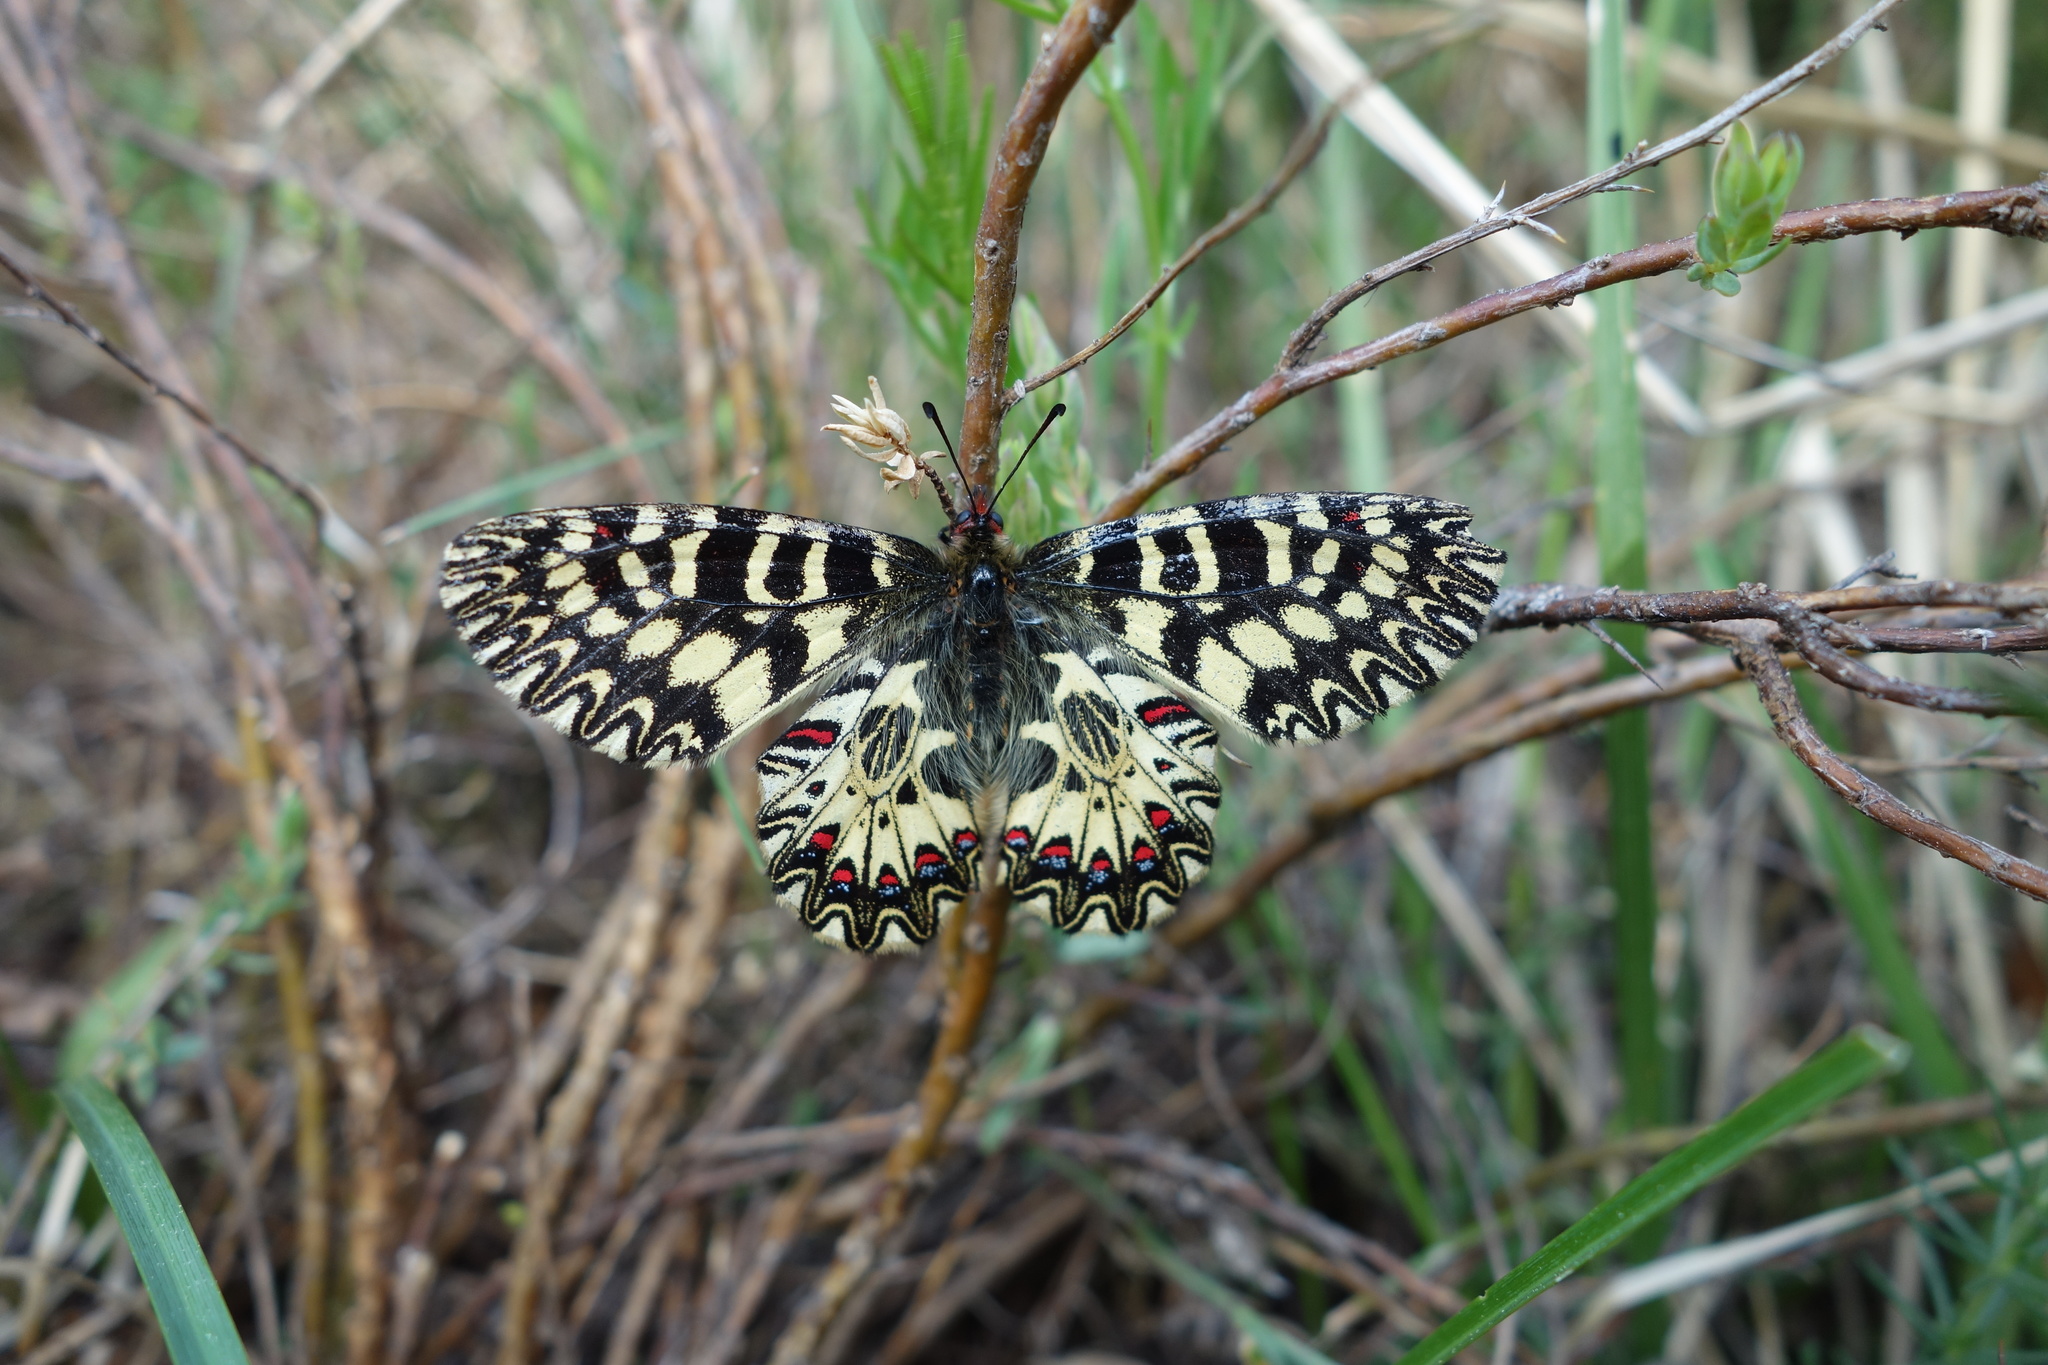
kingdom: Animalia
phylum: Arthropoda
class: Insecta
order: Lepidoptera
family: Papilionidae
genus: Zerynthia
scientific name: Zerynthia cassandra
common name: Italian festoon
